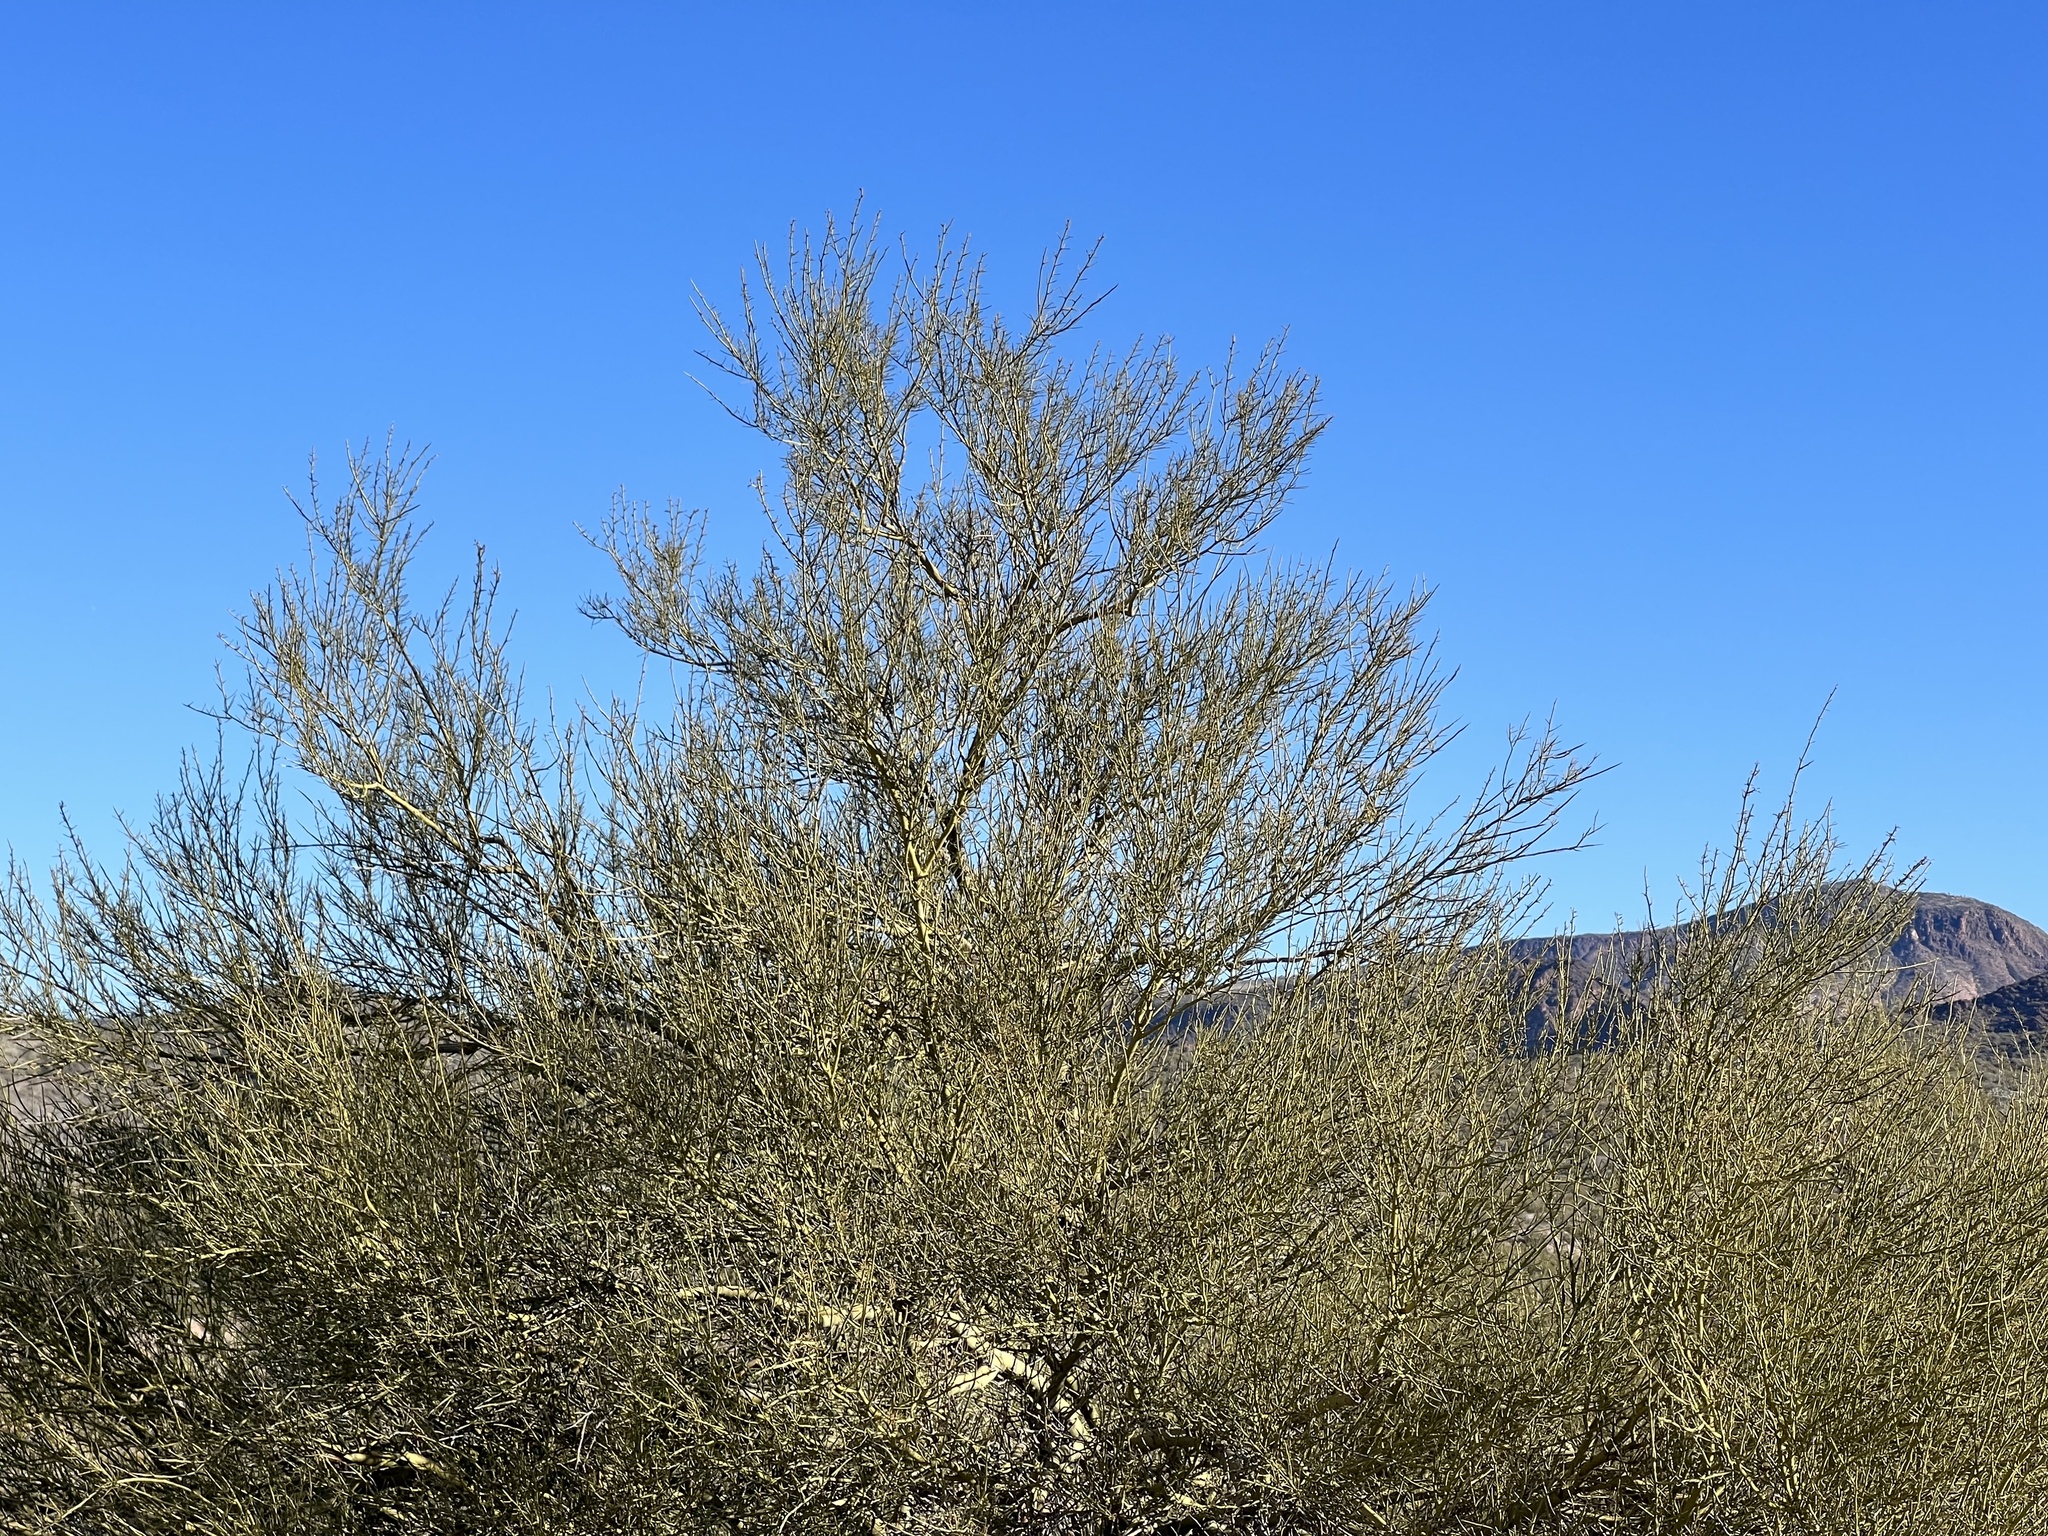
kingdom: Plantae
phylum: Tracheophyta
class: Magnoliopsida
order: Fabales
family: Fabaceae
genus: Parkinsonia
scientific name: Parkinsonia microphylla
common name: Yellow paloverde
